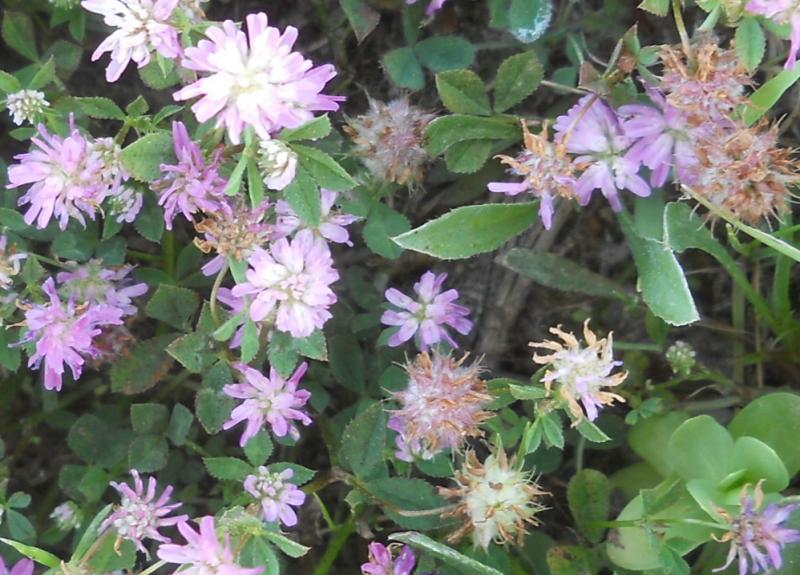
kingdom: Plantae
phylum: Tracheophyta
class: Magnoliopsida
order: Fabales
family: Fabaceae
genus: Trifolium
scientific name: Trifolium resupinatum
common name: Reversed clover
